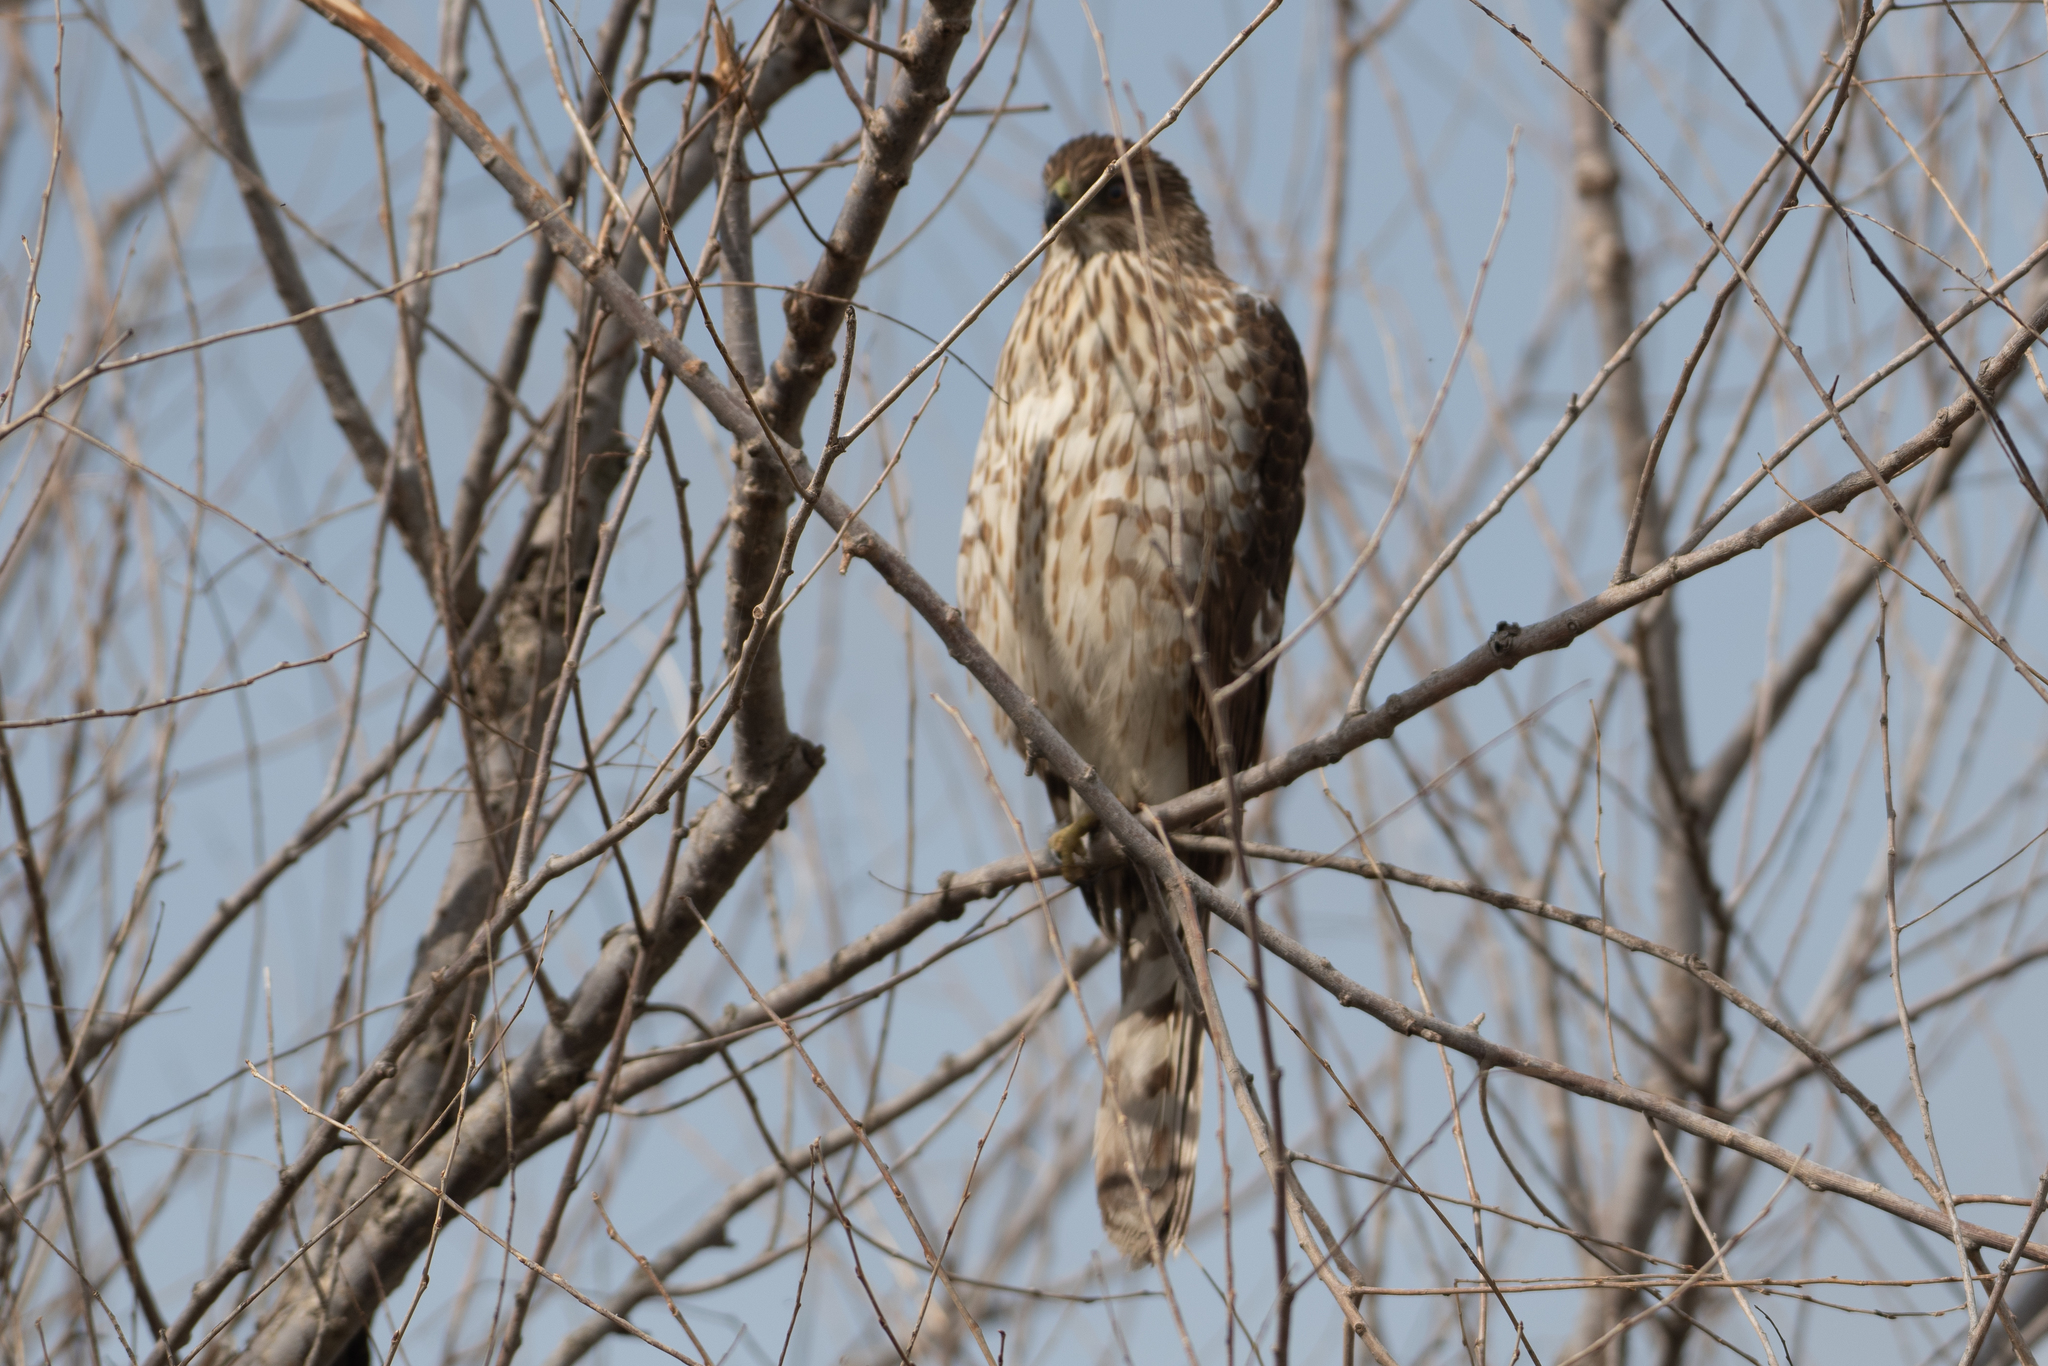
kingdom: Animalia
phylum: Chordata
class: Aves
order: Accipitriformes
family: Accipitridae
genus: Accipiter
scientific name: Accipiter cooperii
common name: Cooper's hawk
